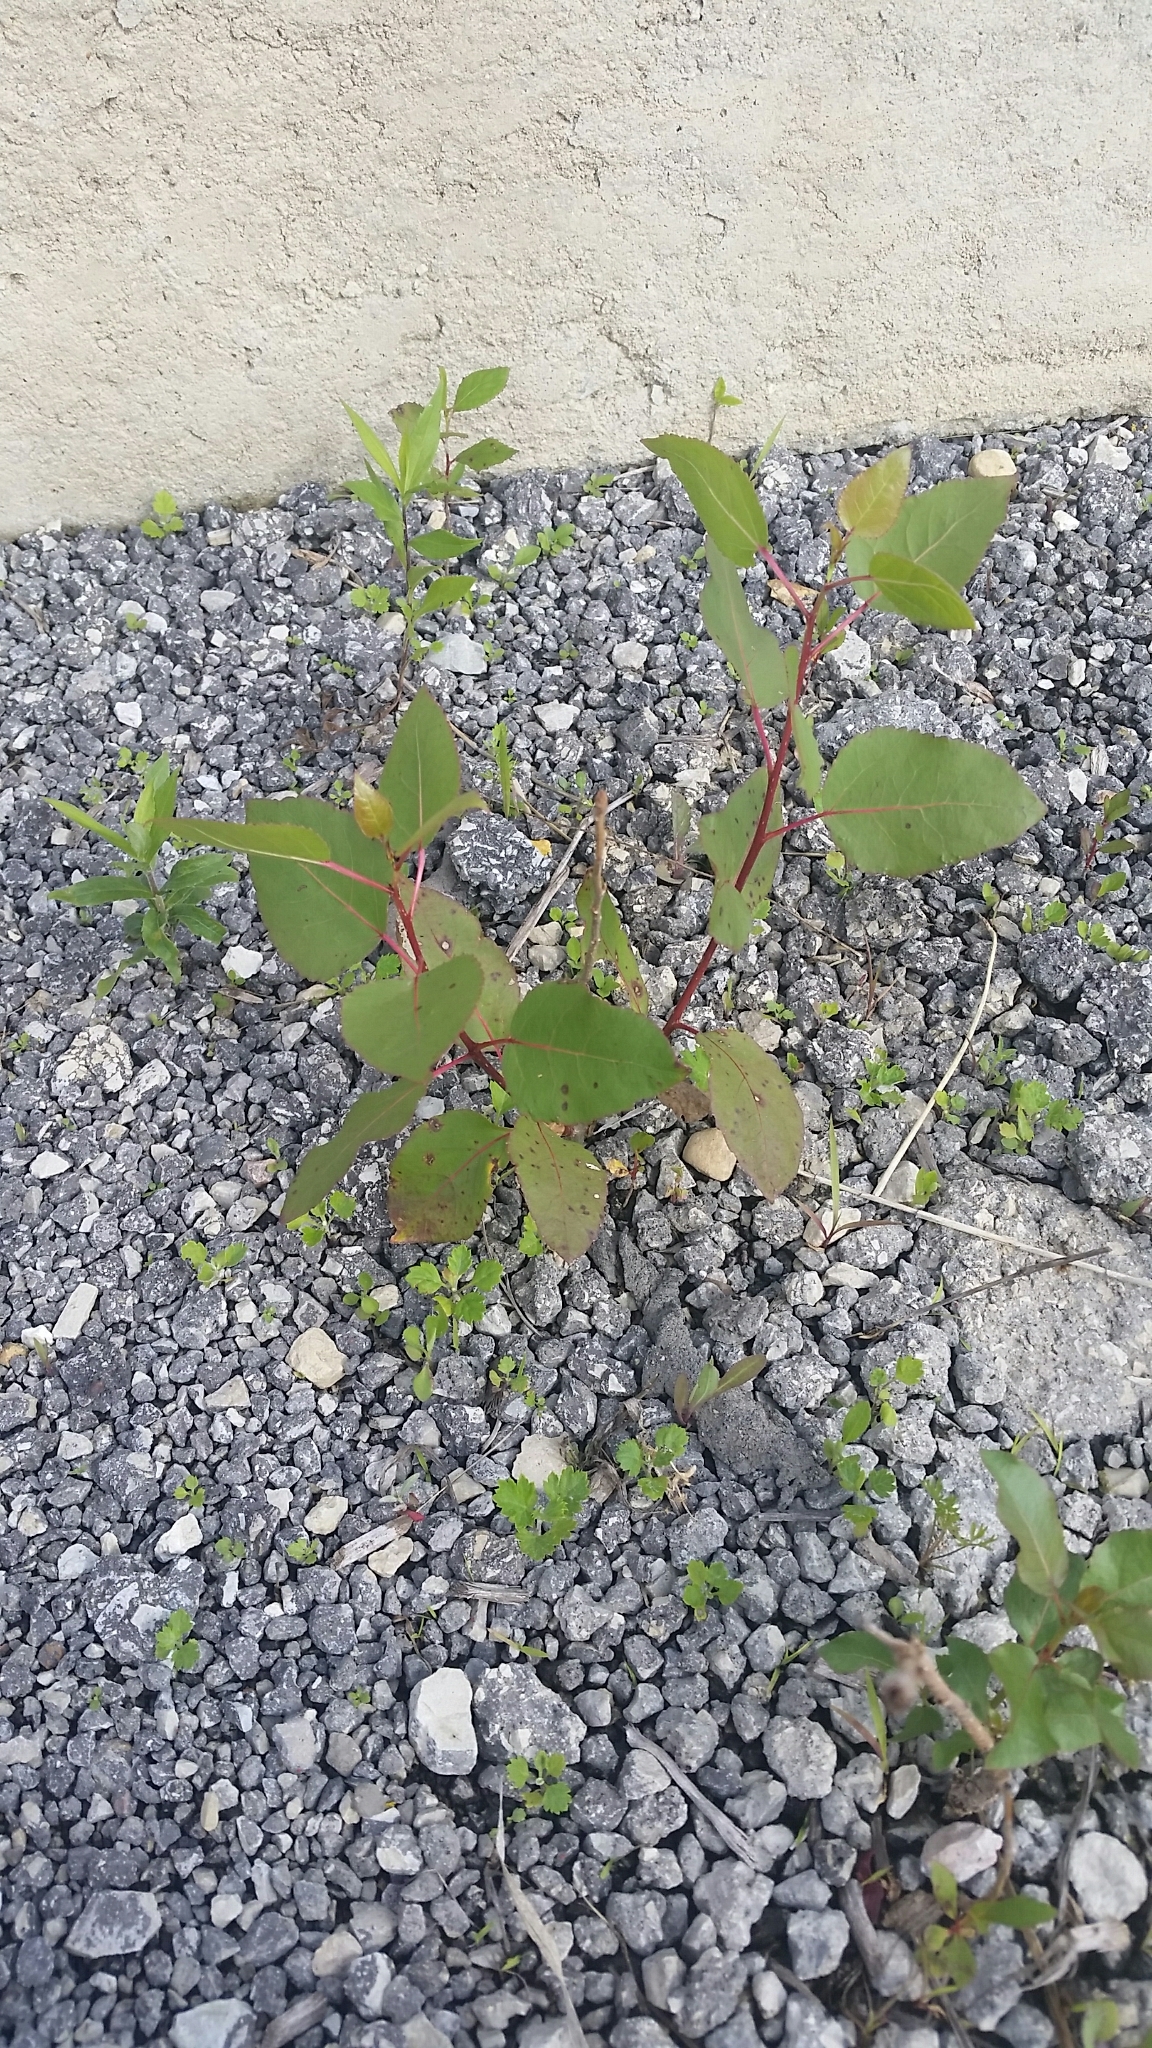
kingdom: Plantae
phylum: Tracheophyta
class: Magnoliopsida
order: Malpighiales
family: Salicaceae
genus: Populus
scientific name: Populus deltoides
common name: Eastern cottonwood
